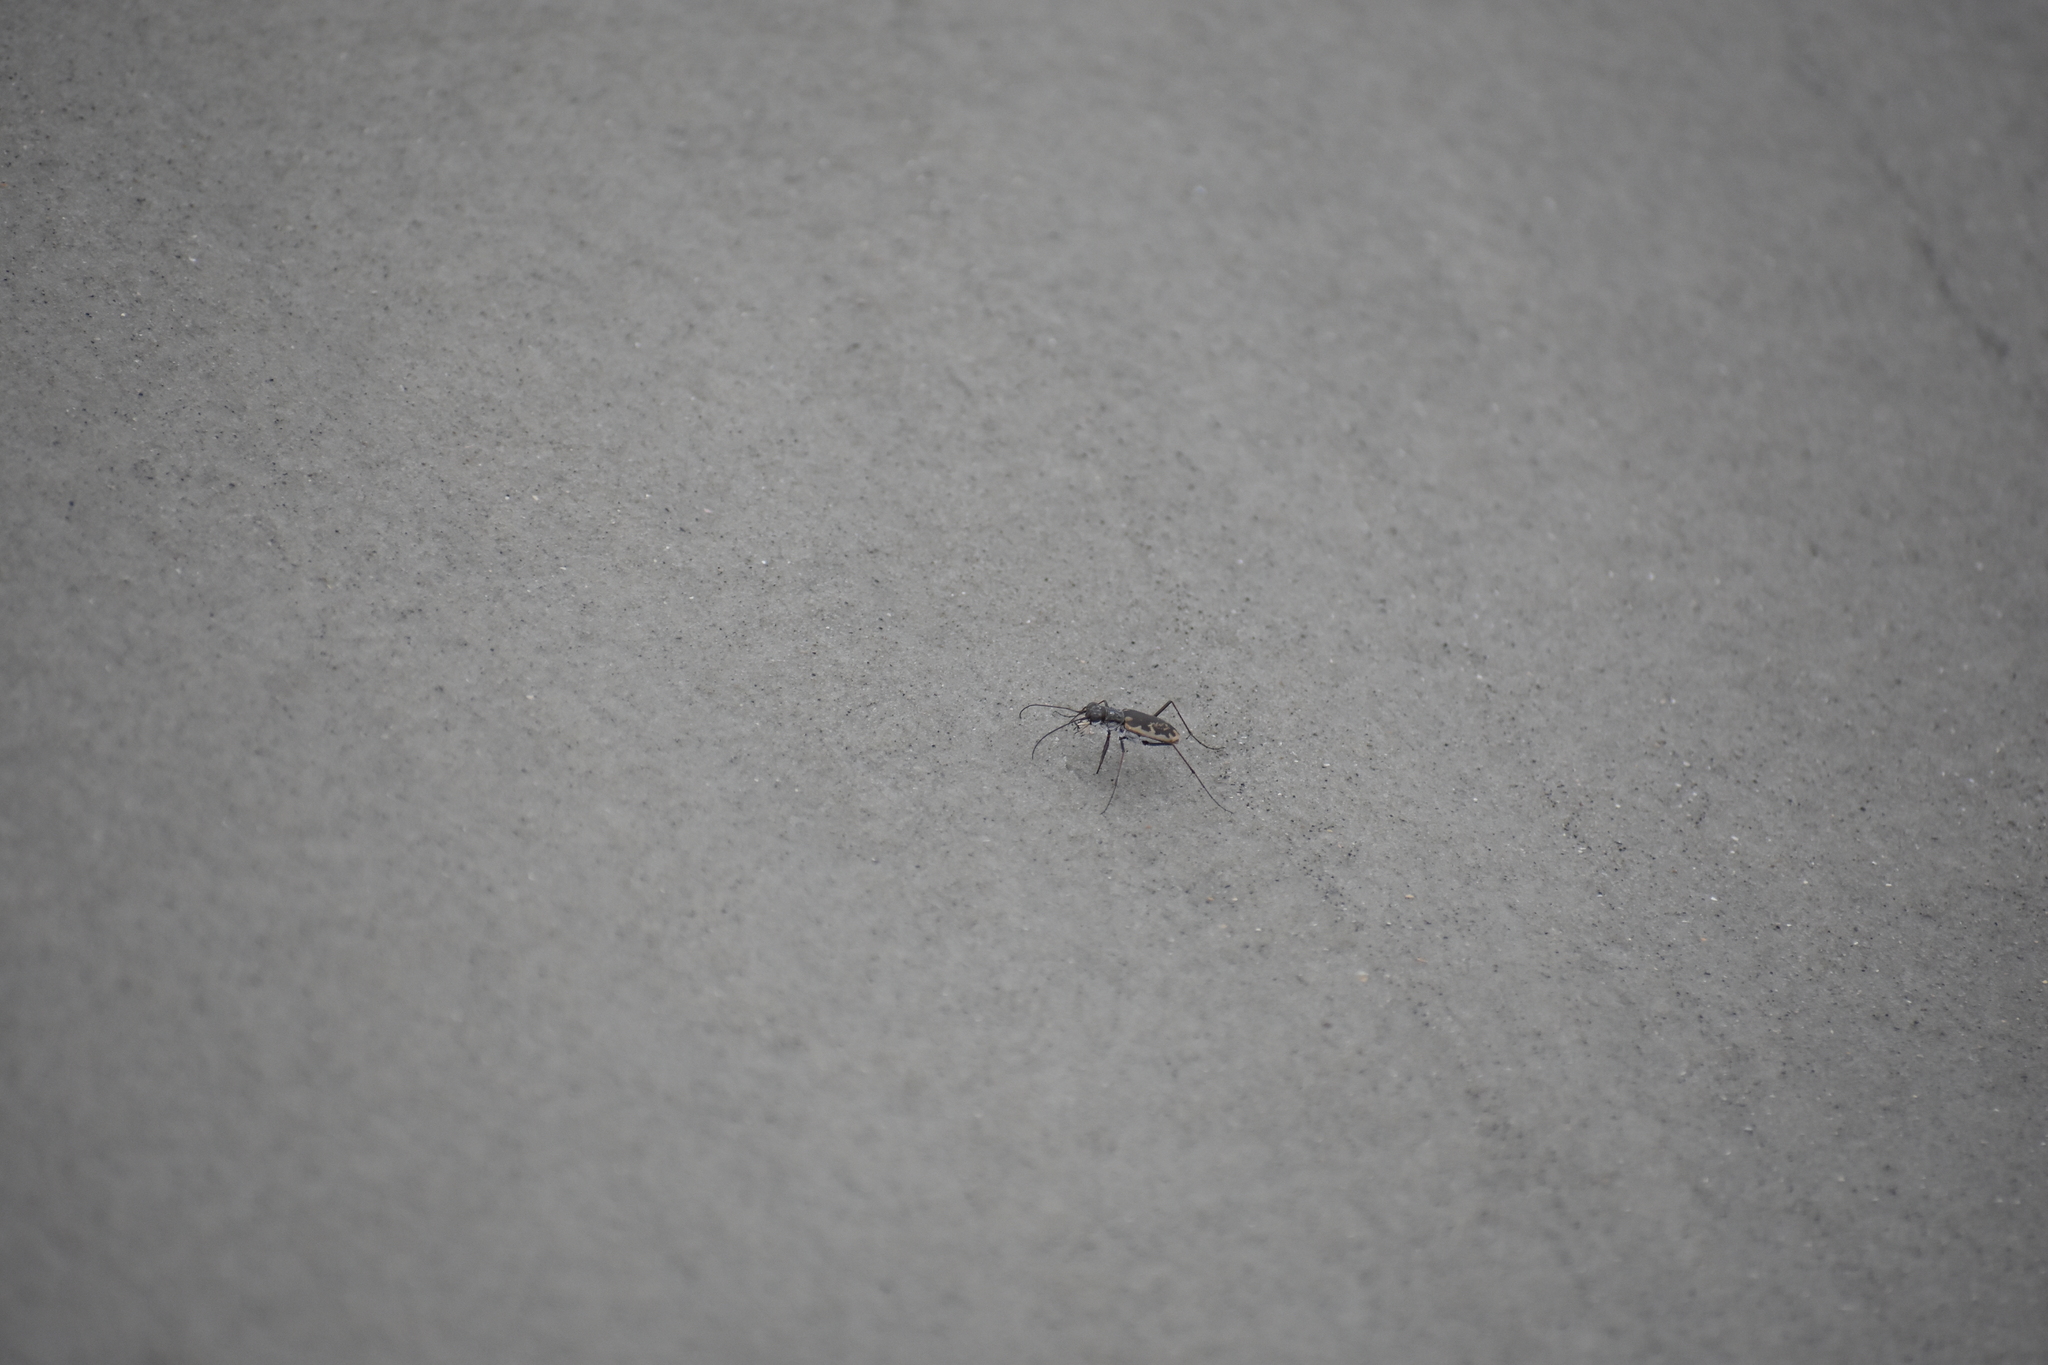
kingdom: Animalia
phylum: Arthropoda
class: Insecta
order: Coleoptera
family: Carabidae
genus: Ellipsoptera
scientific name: Ellipsoptera marginata
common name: Margined tiger beetle
